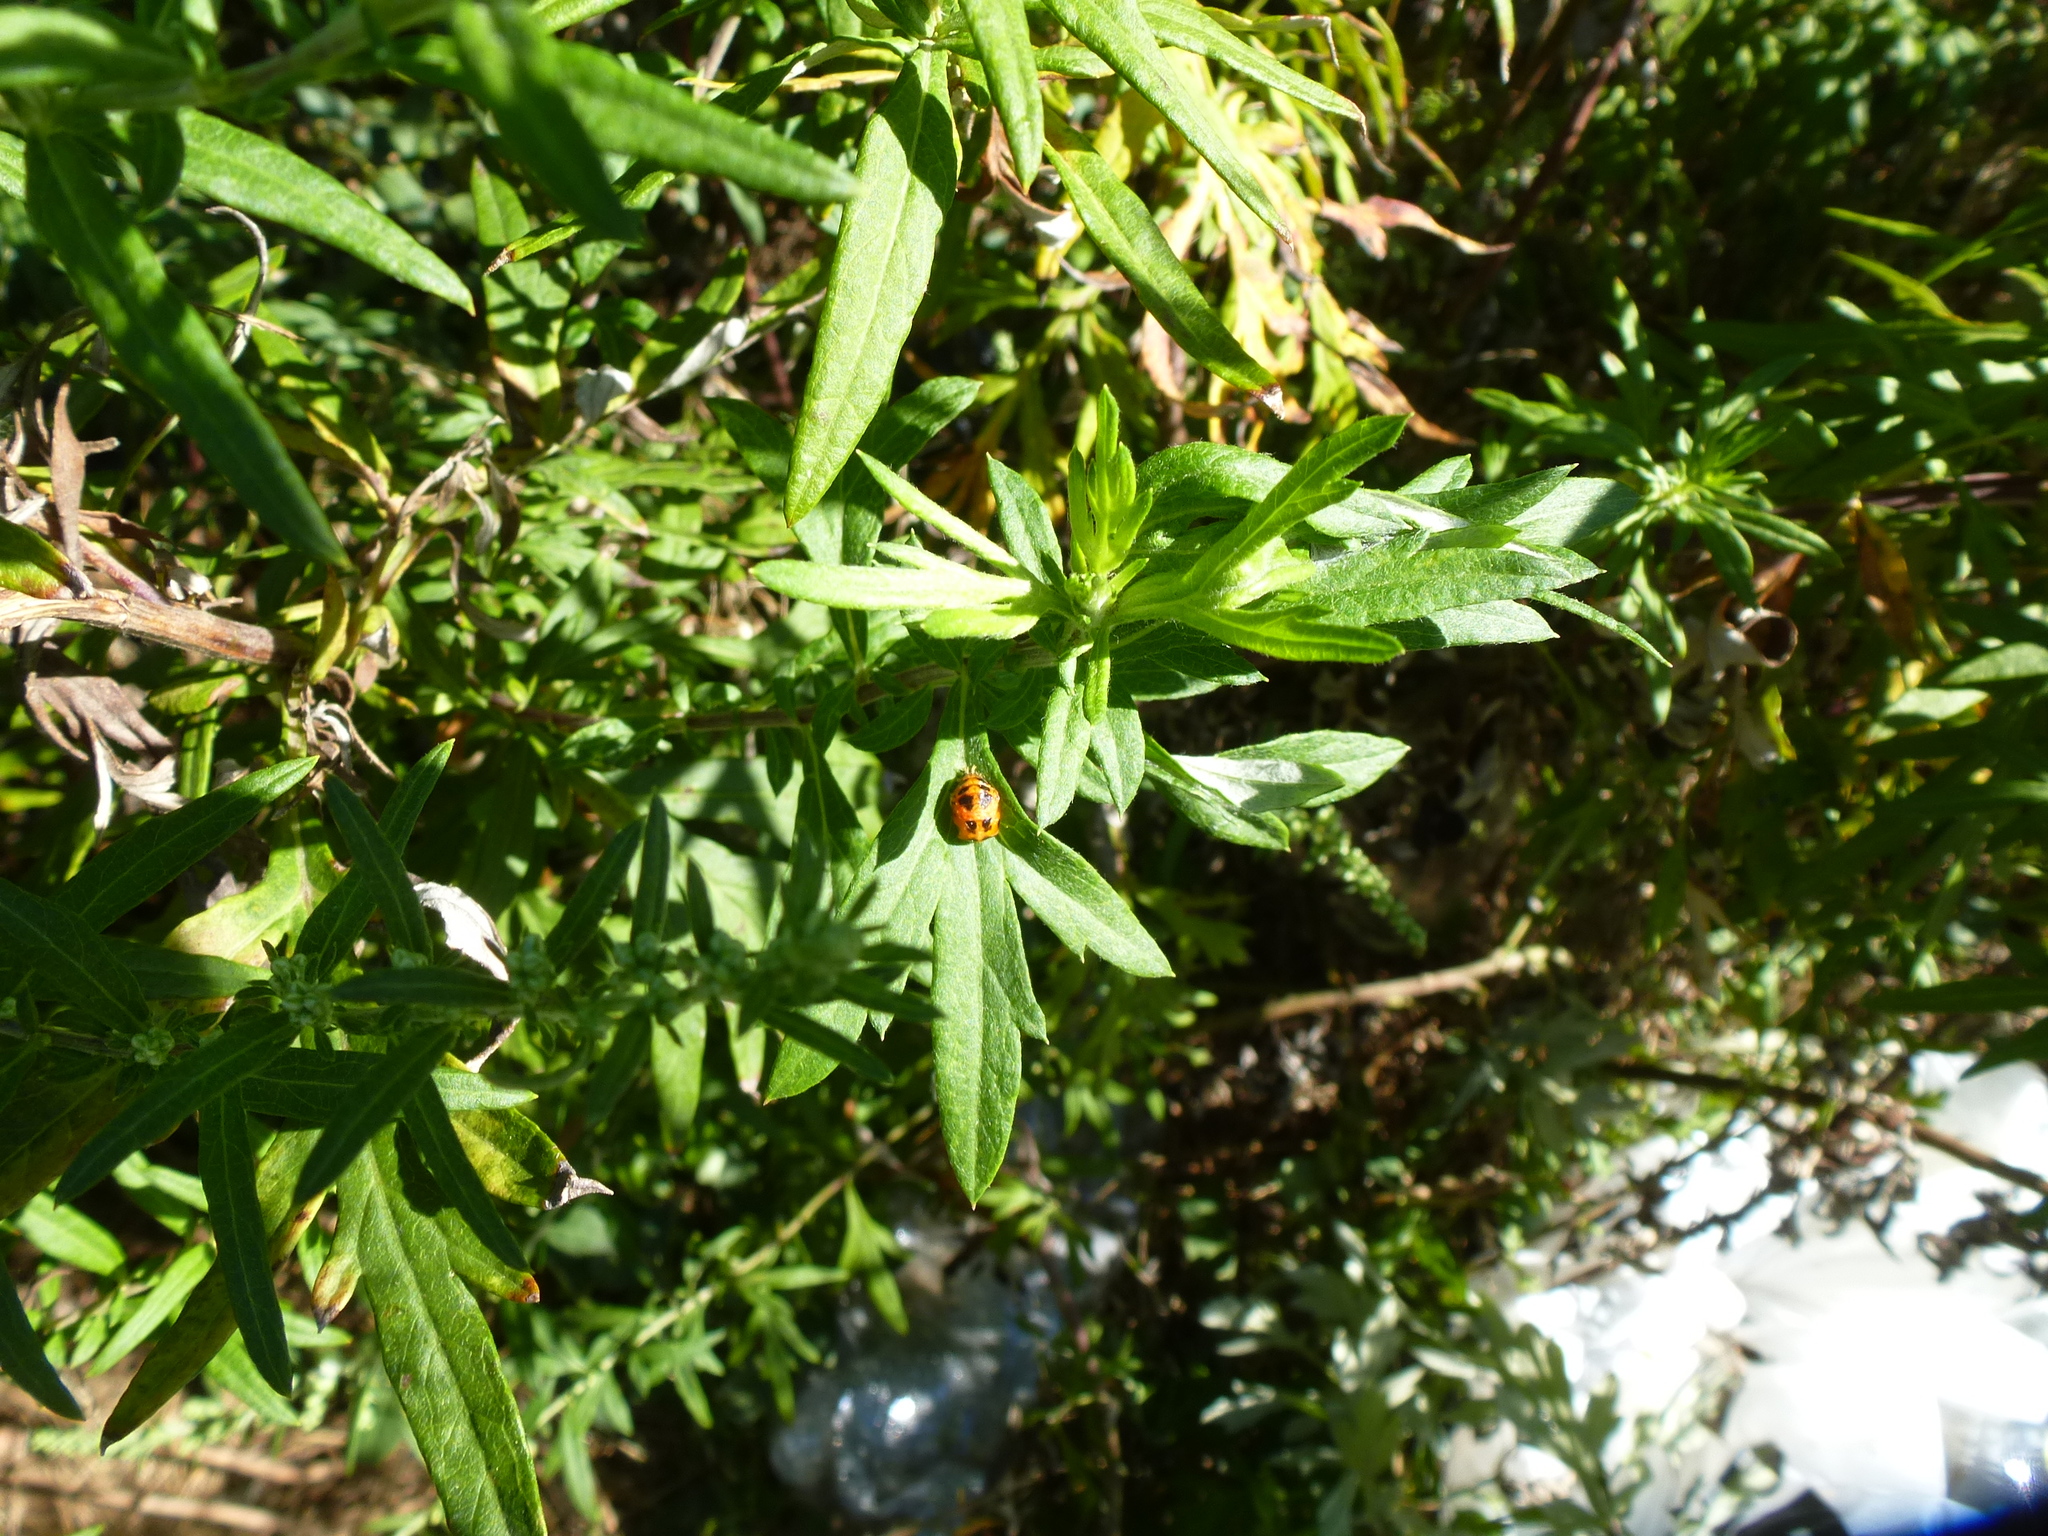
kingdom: Animalia
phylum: Arthropoda
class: Insecta
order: Coleoptera
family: Coccinellidae
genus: Harmonia
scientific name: Harmonia axyridis
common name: Harlequin ladybird
